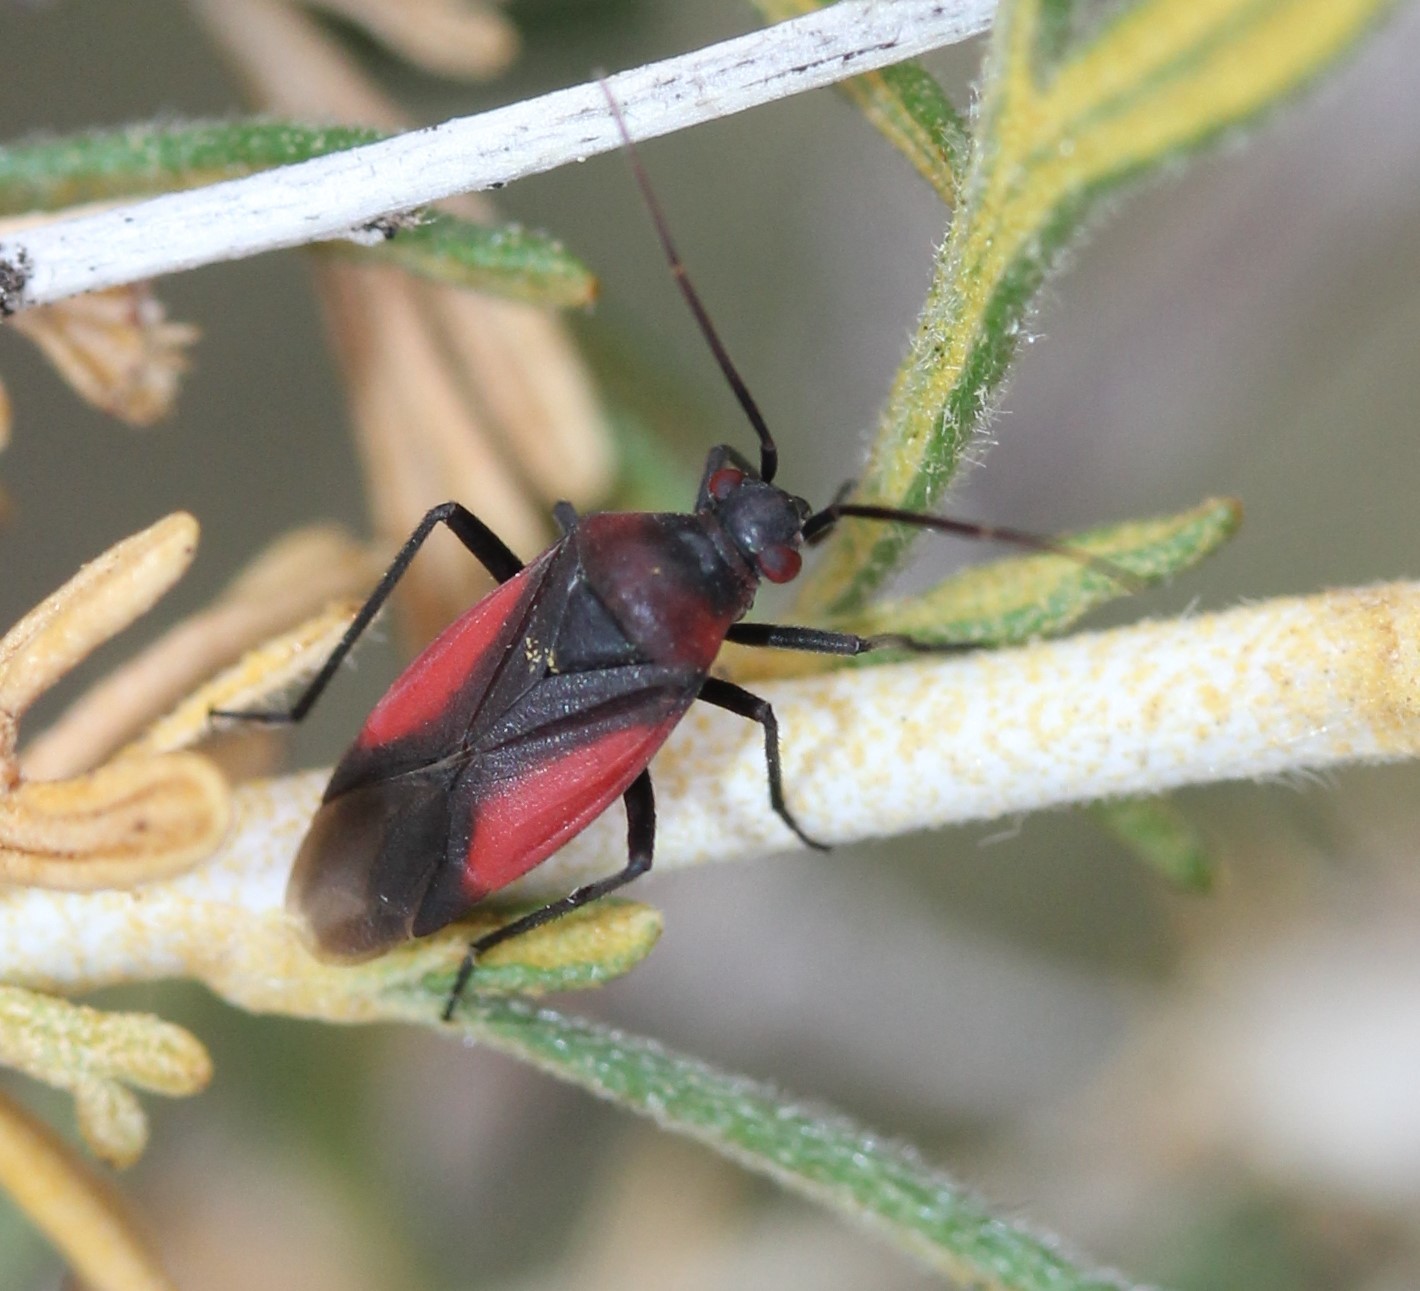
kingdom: Animalia
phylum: Arthropoda
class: Insecta
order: Hemiptera
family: Miridae
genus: Oncerometopus
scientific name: Oncerometopus atriscutis
